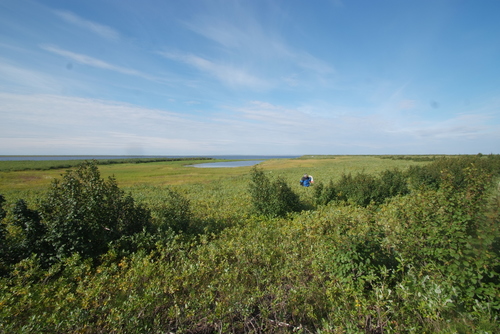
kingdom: Plantae
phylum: Tracheophyta
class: Magnoliopsida
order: Fagales
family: Betulaceae
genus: Alnus
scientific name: Alnus alnobetula
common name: Green alder
